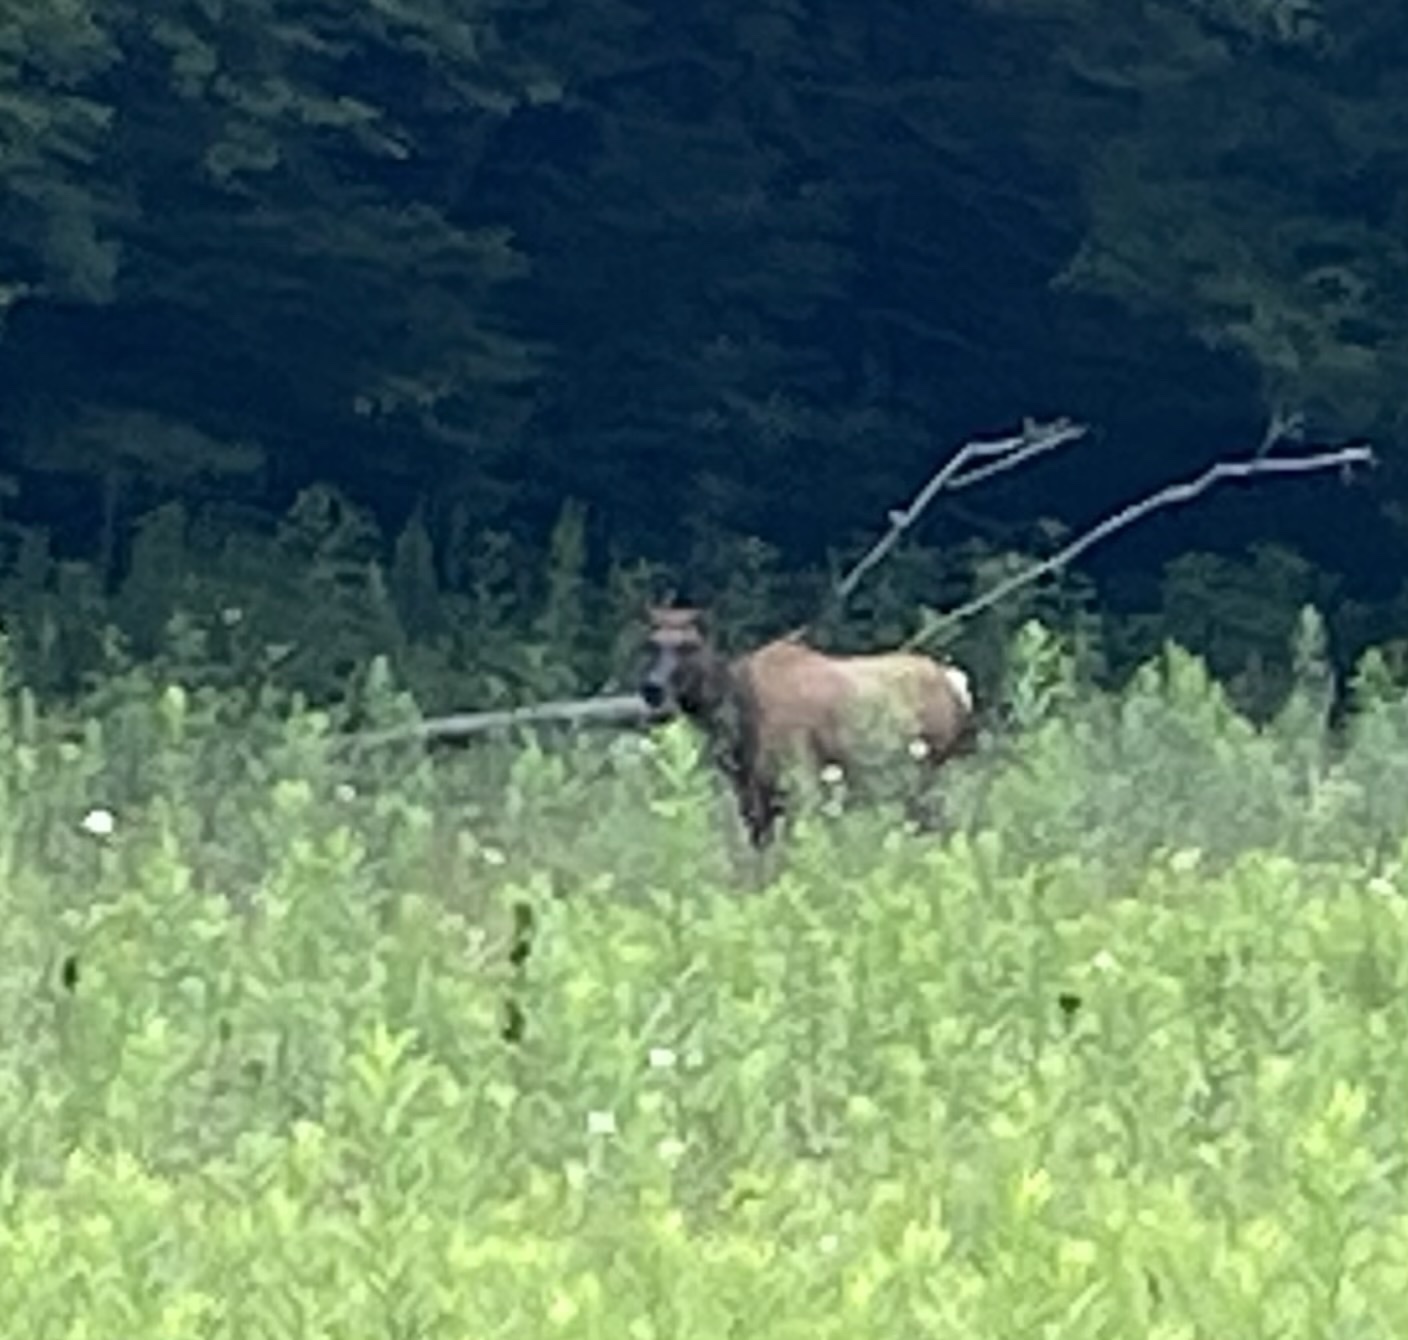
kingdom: Animalia
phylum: Chordata
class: Mammalia
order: Artiodactyla
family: Cervidae
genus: Cervus
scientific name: Cervus elaphus
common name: Red deer
